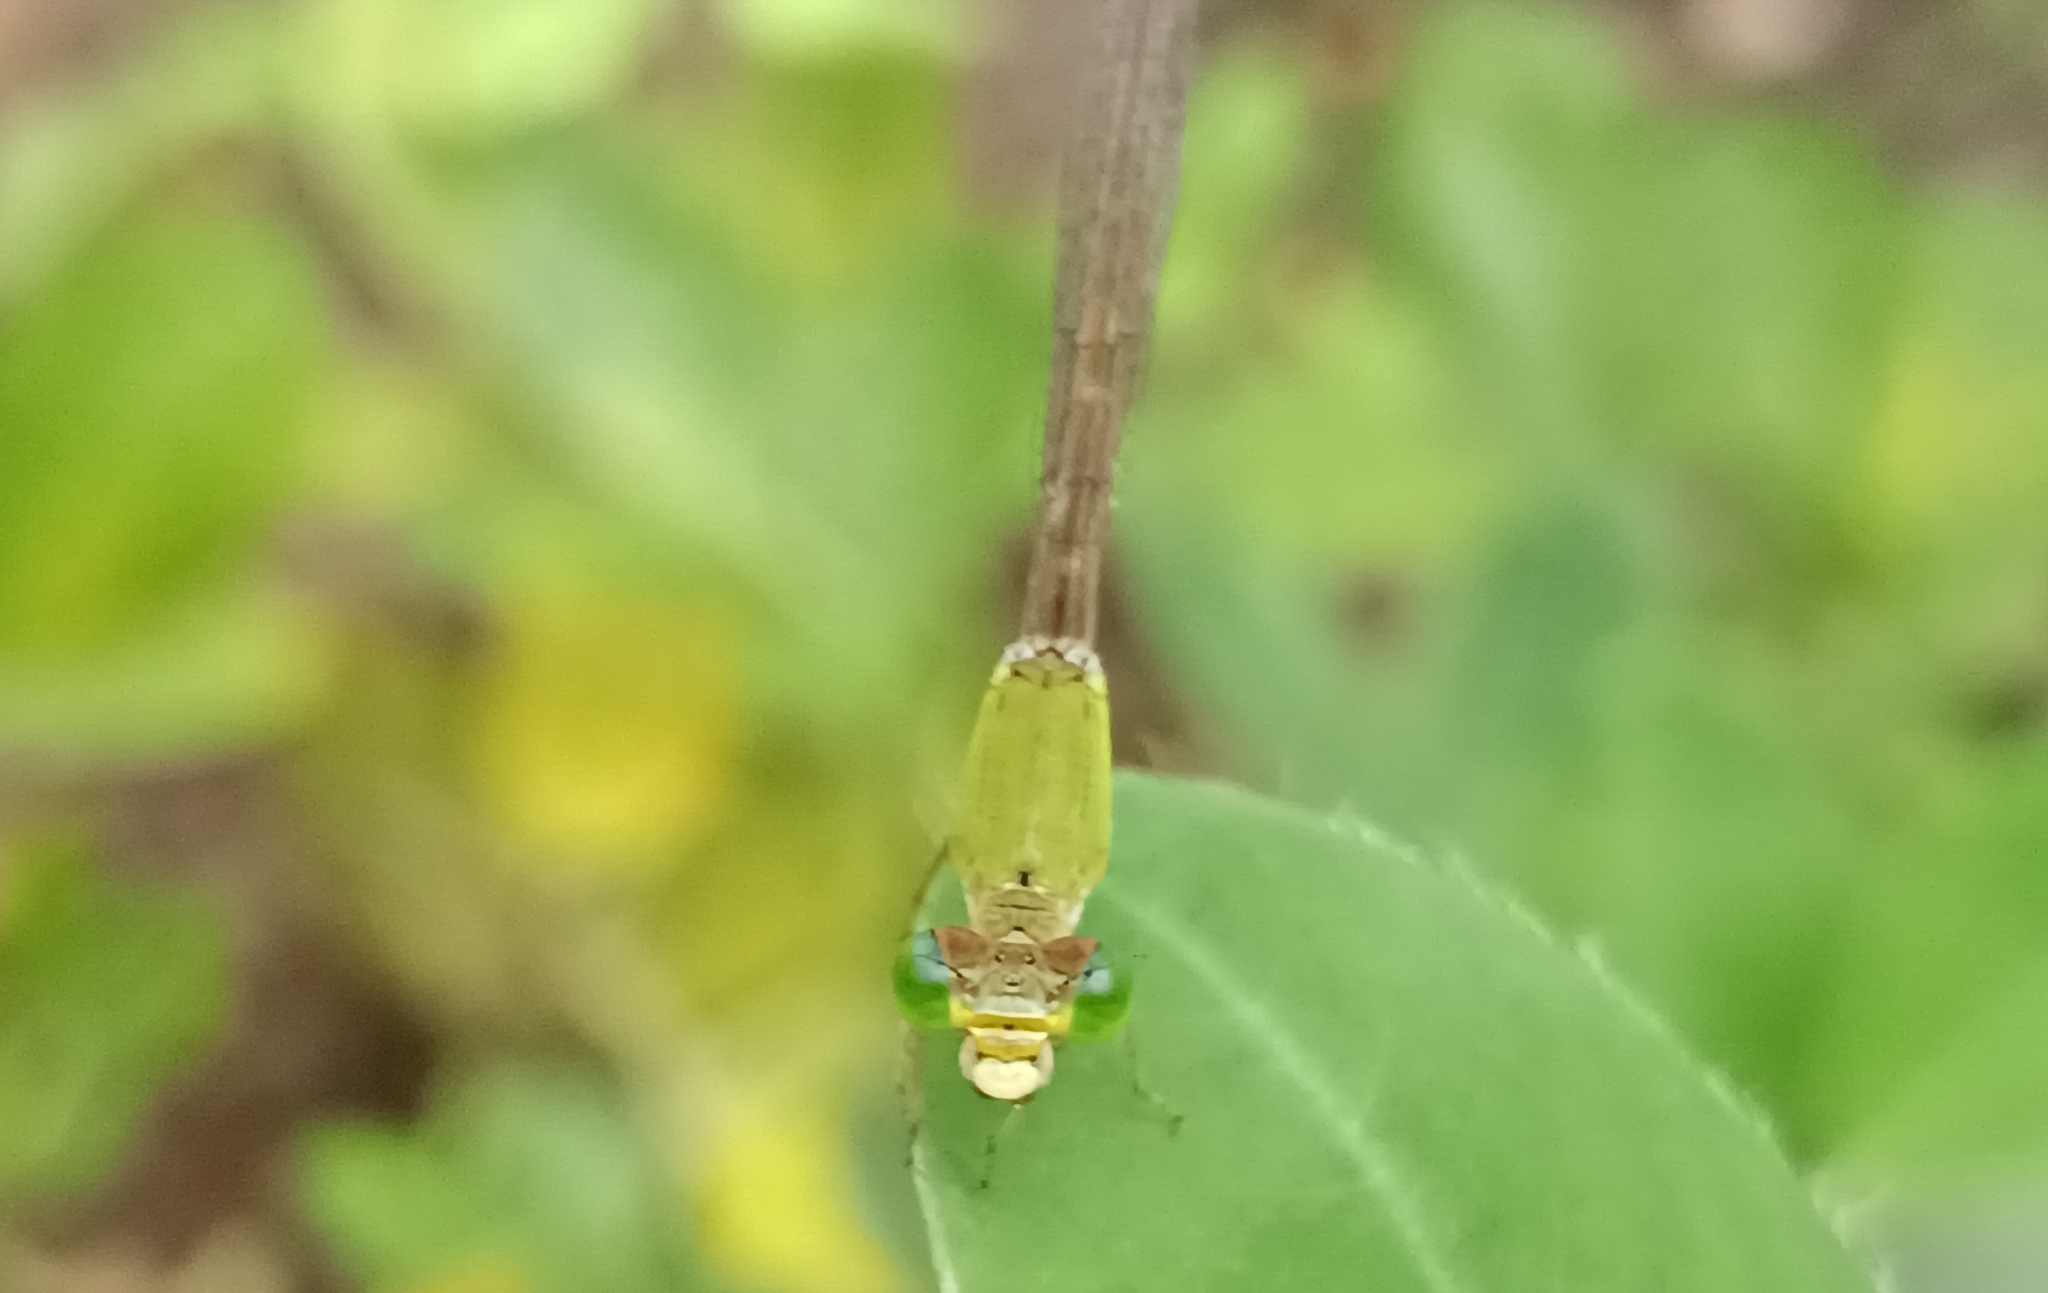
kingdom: Animalia
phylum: Arthropoda
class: Insecta
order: Odonata
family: Coenagrionidae
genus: Ceriagrion
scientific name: Ceriagrion coromandelianum
